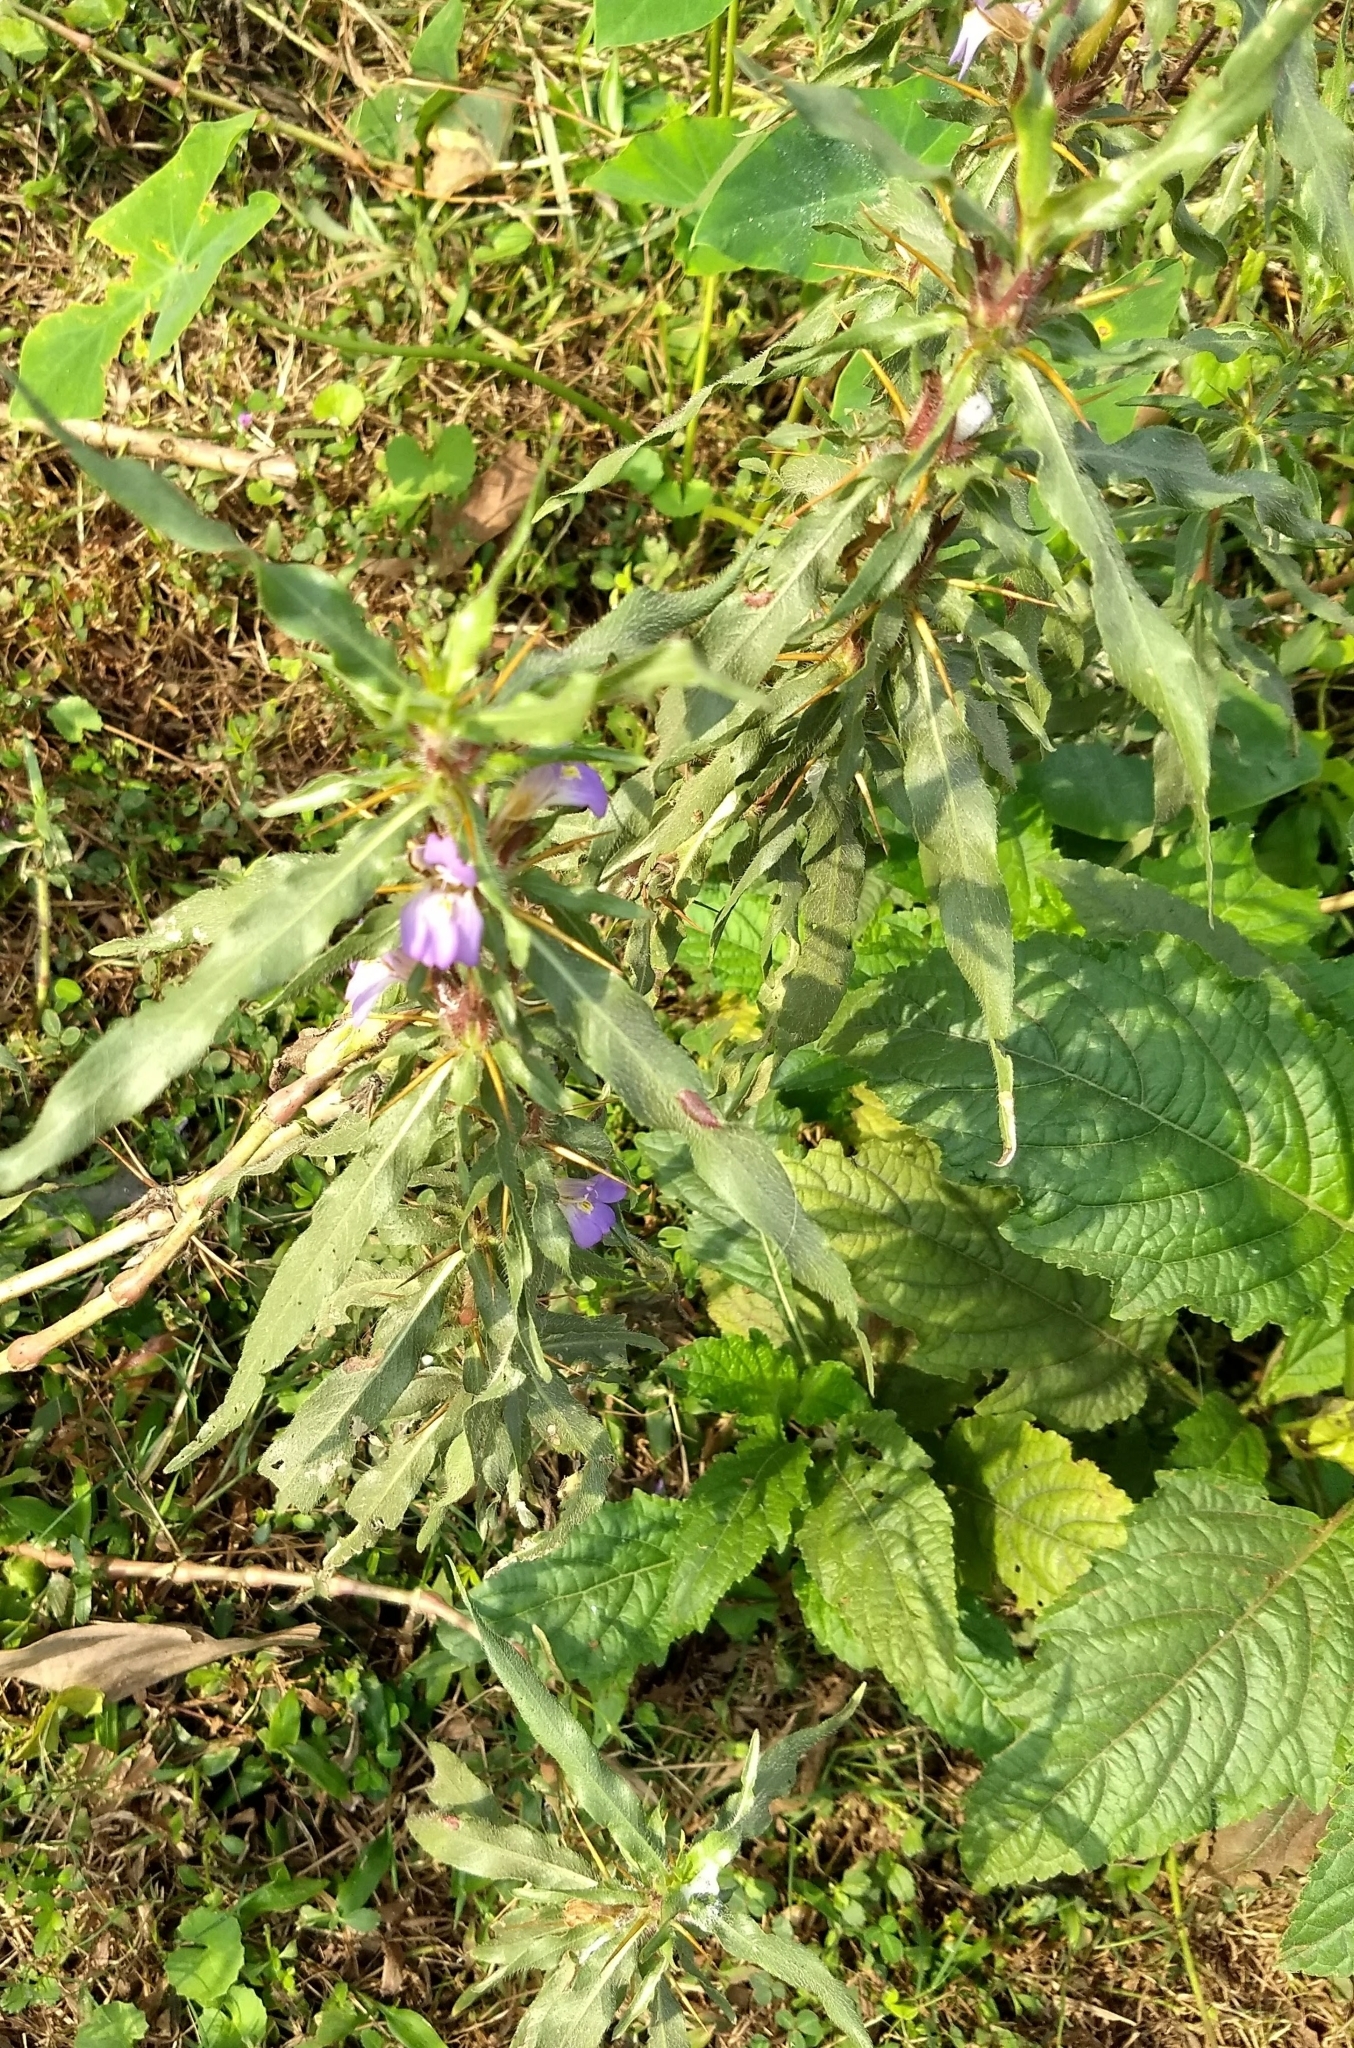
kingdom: Plantae
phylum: Tracheophyta
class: Magnoliopsida
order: Lamiales
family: Acanthaceae
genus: Hygrophila
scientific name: Hygrophila auriculata
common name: Hygrophila
